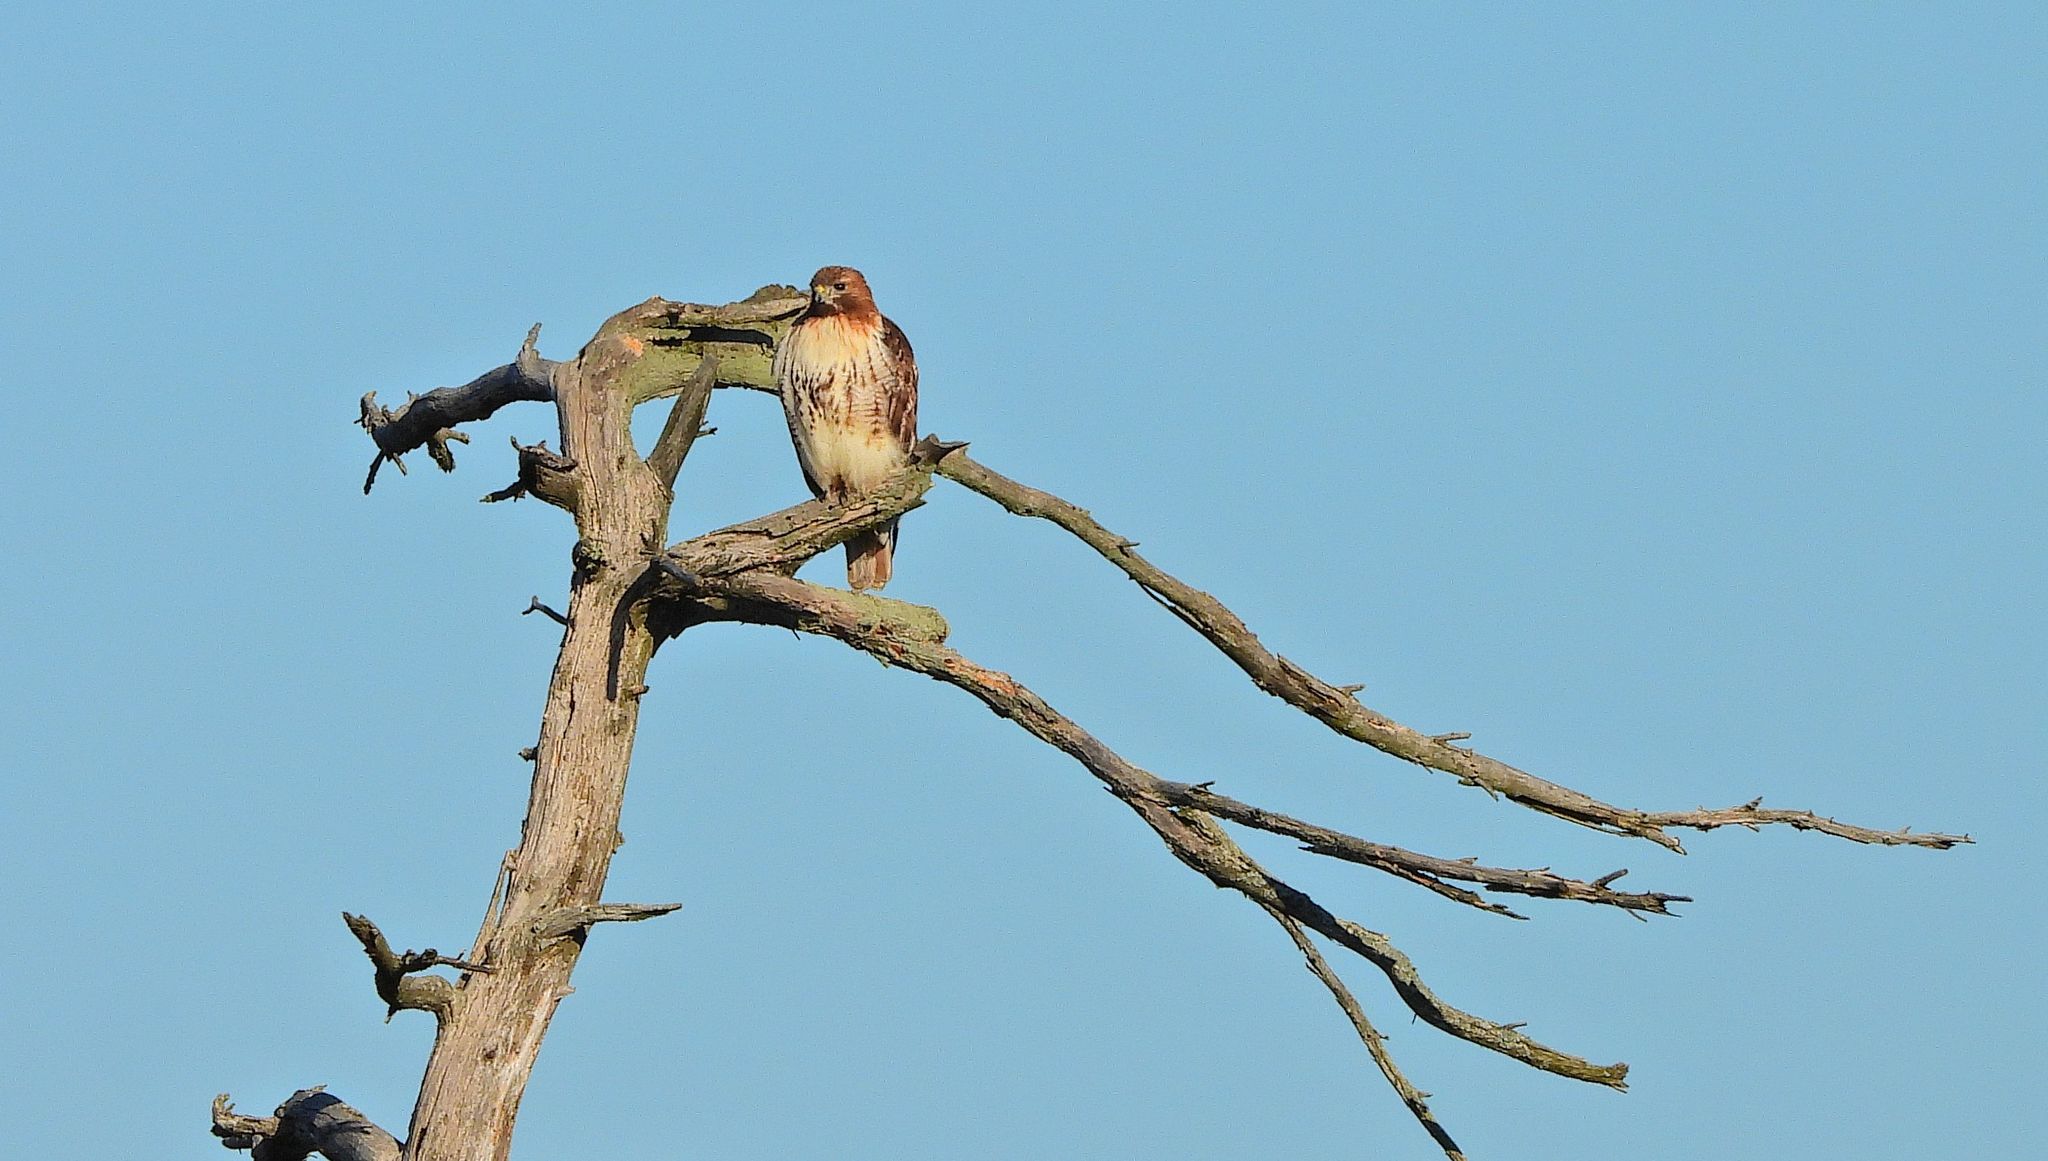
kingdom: Animalia
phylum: Chordata
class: Aves
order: Accipitriformes
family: Accipitridae
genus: Buteo
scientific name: Buteo jamaicensis
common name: Red-tailed hawk
